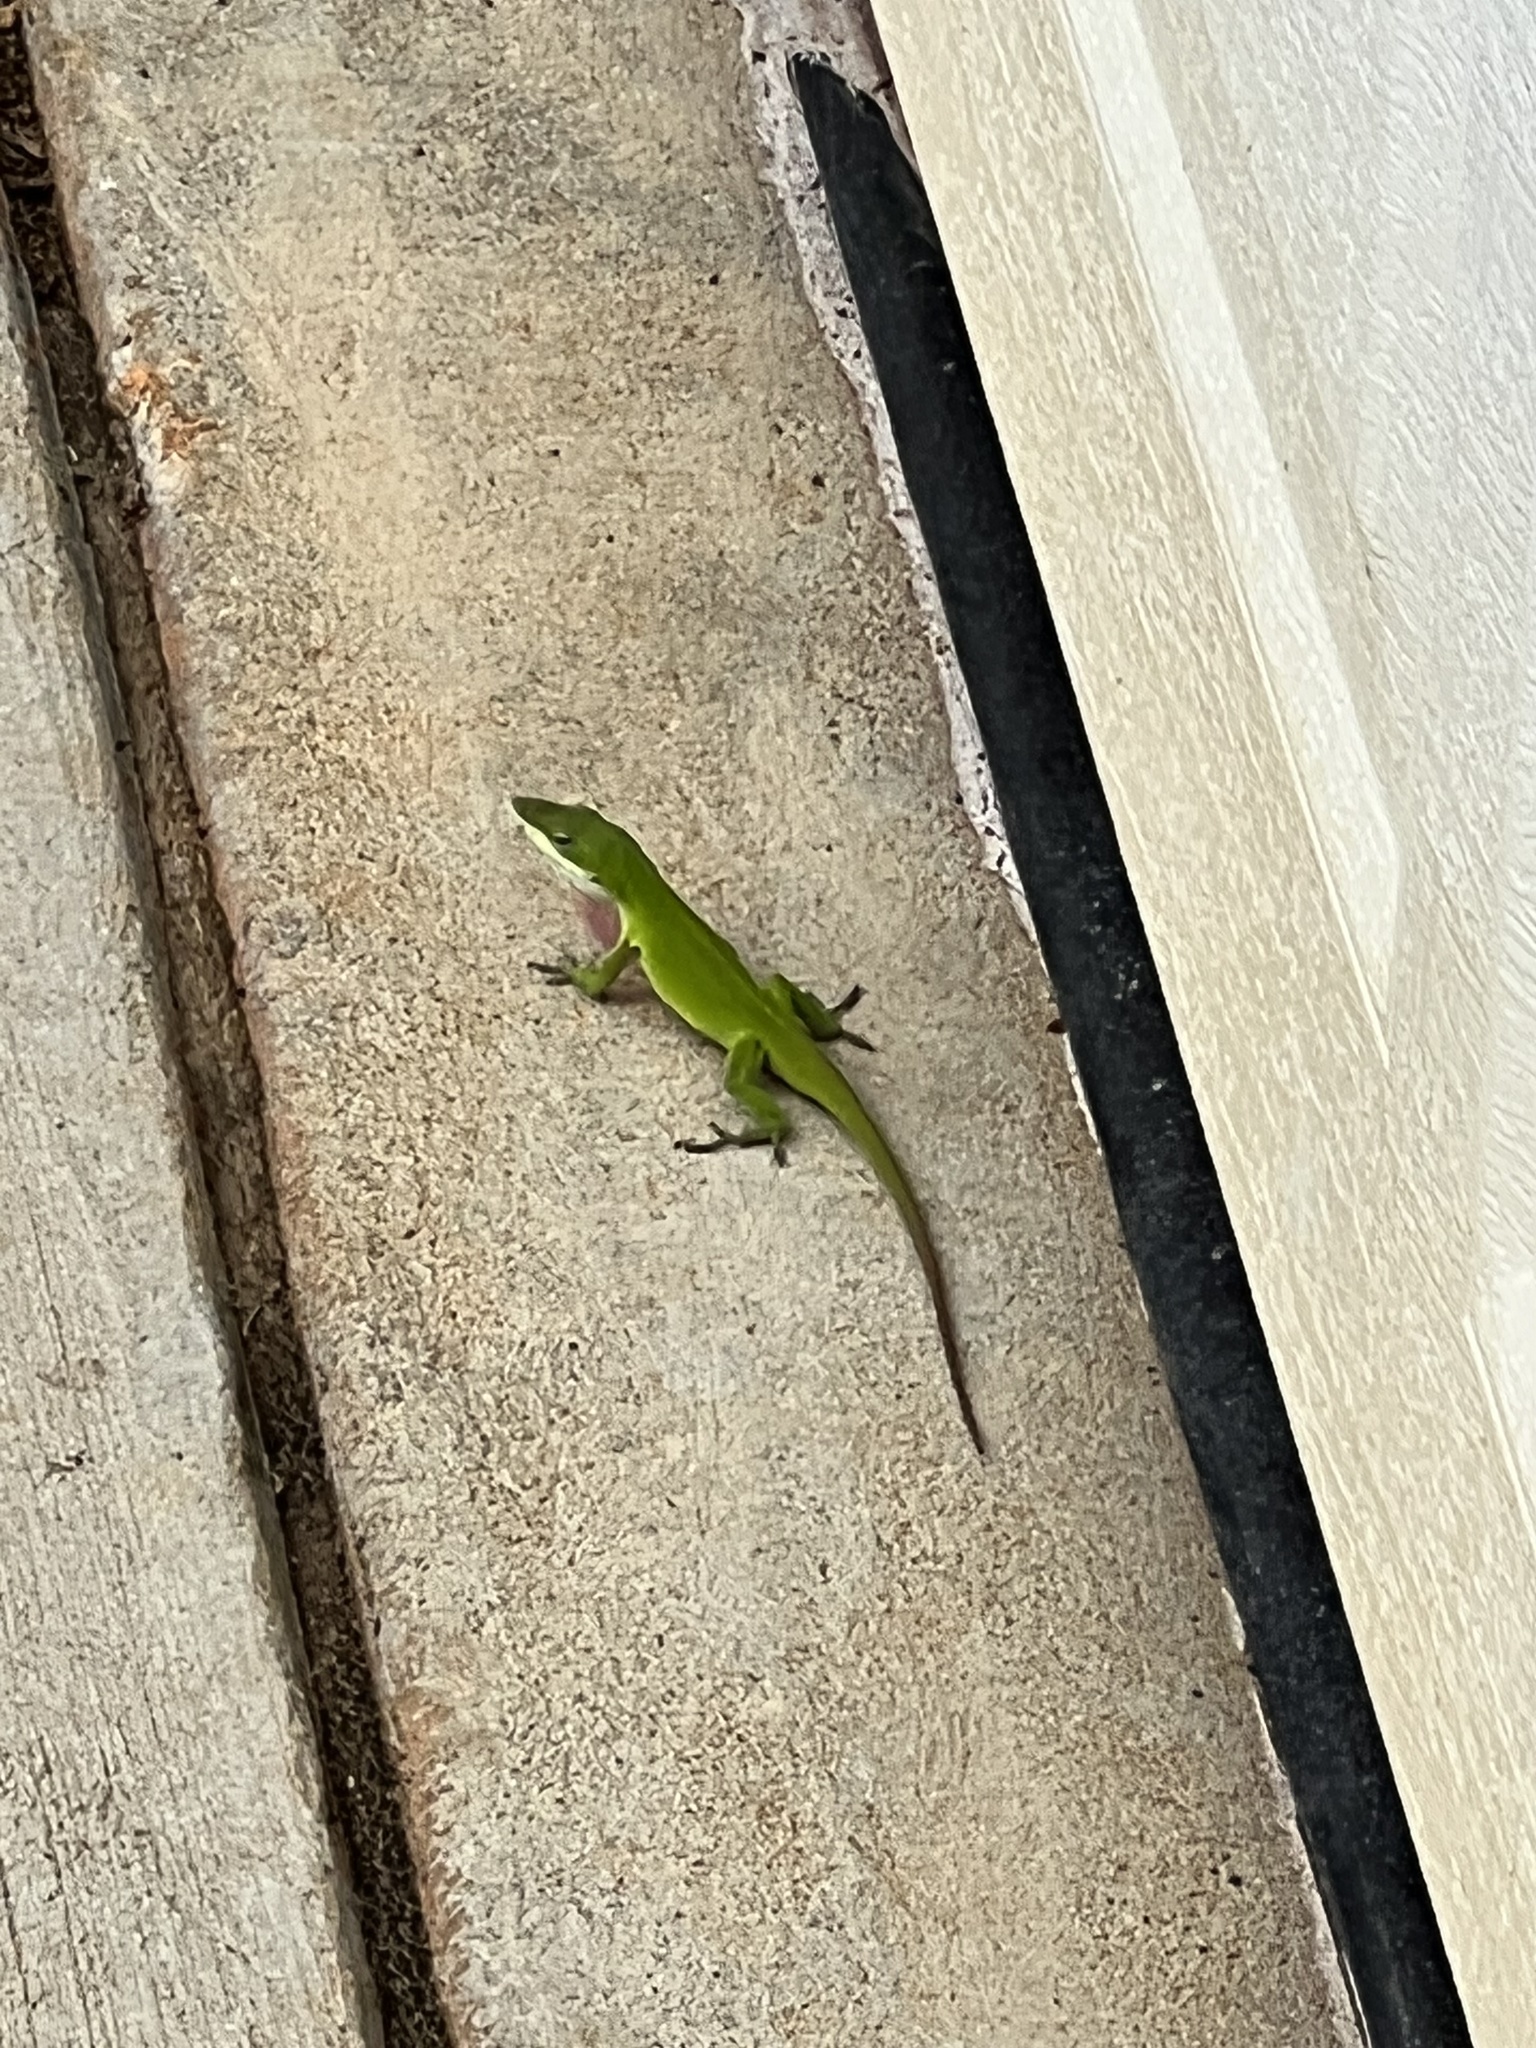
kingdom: Animalia
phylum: Chordata
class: Squamata
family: Dactyloidae
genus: Anolis
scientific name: Anolis carolinensis
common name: Green anole
